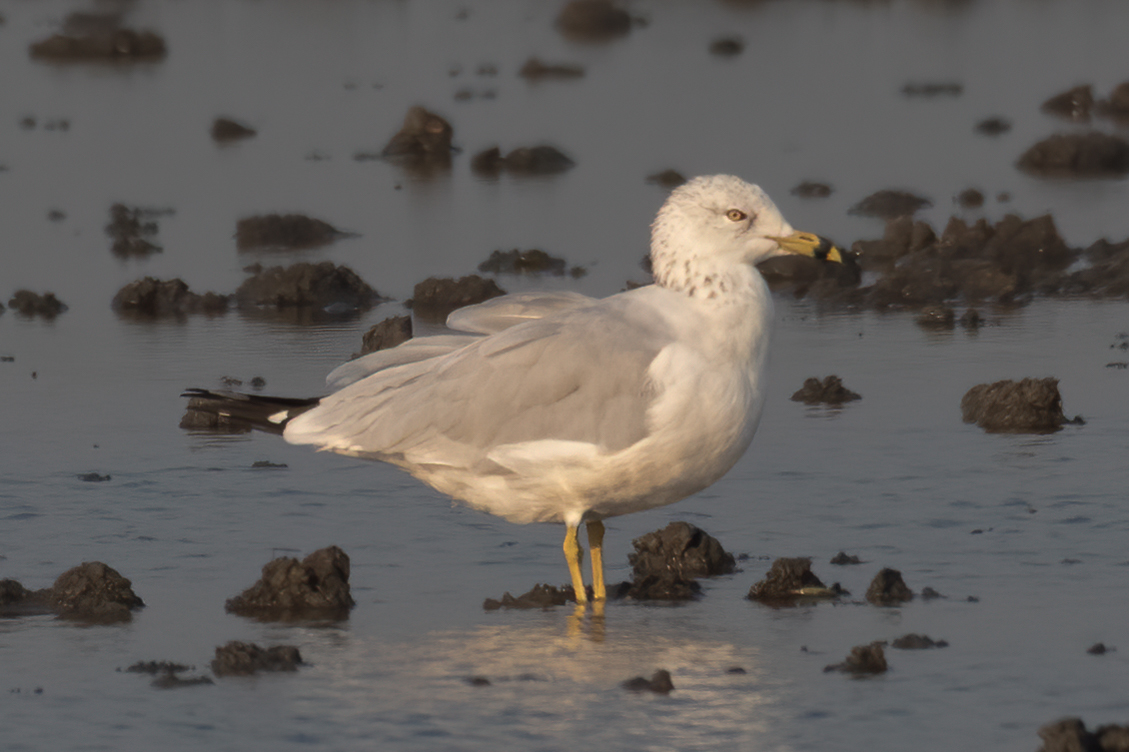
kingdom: Animalia
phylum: Chordata
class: Aves
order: Charadriiformes
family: Laridae
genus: Larus
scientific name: Larus delawarensis
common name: Ring-billed gull
